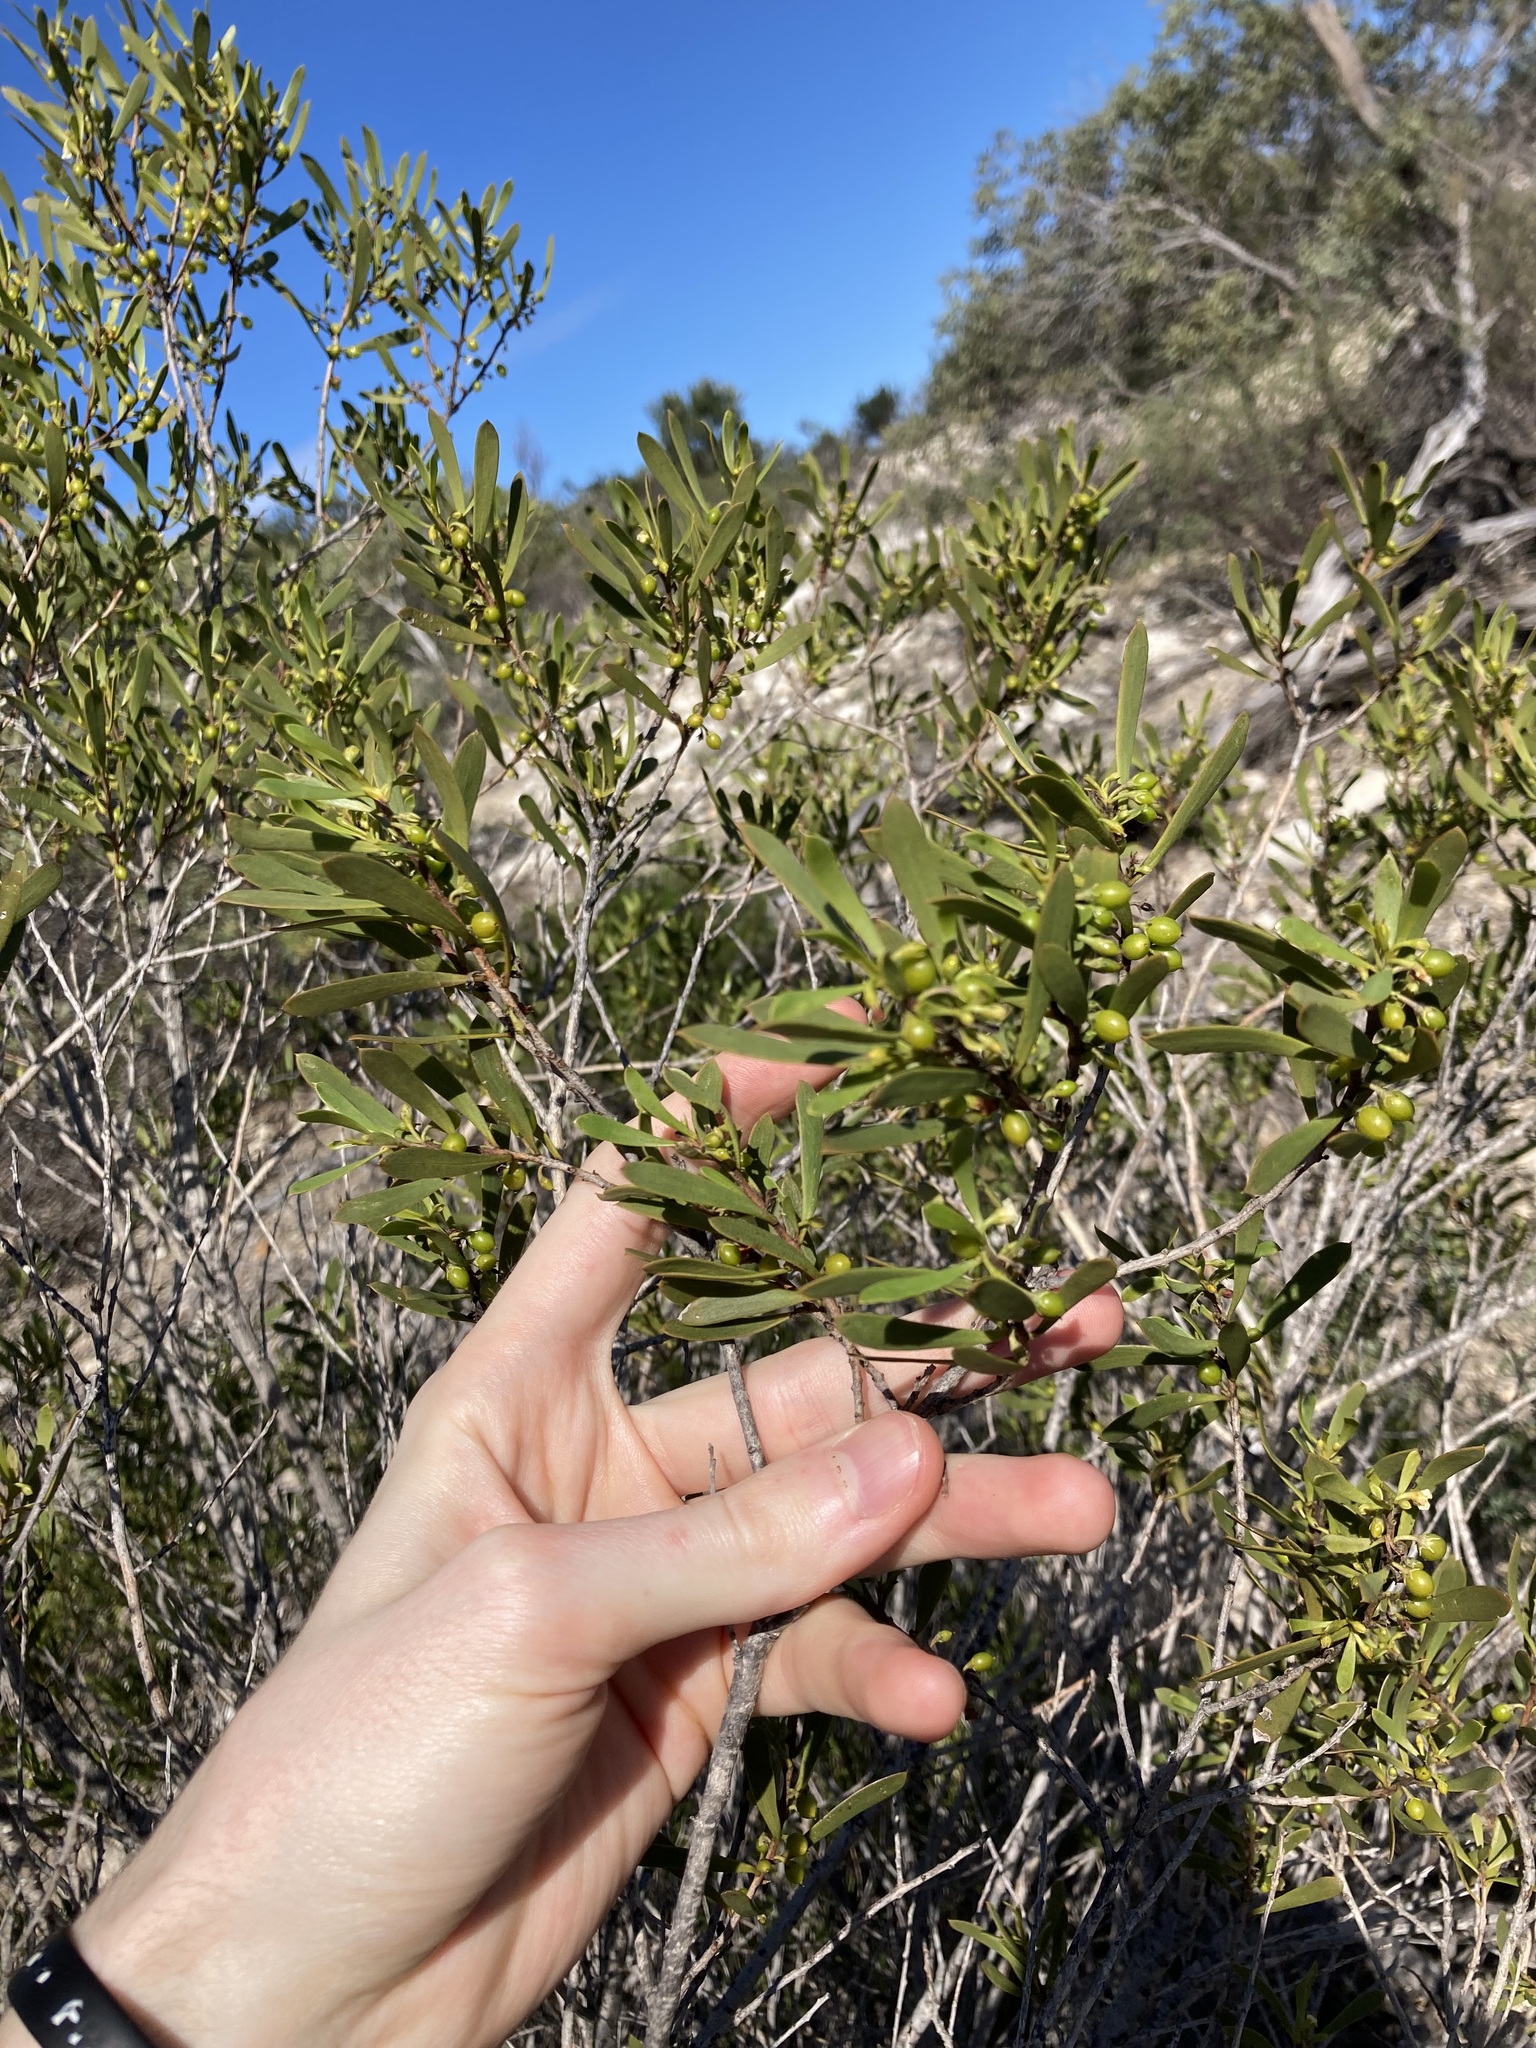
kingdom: Plantae
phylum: Tracheophyta
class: Magnoliopsida
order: Lamiales
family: Scrophulariaceae
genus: Eremophila
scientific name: Eremophila deserti
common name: Ellangowan-poisonbush
